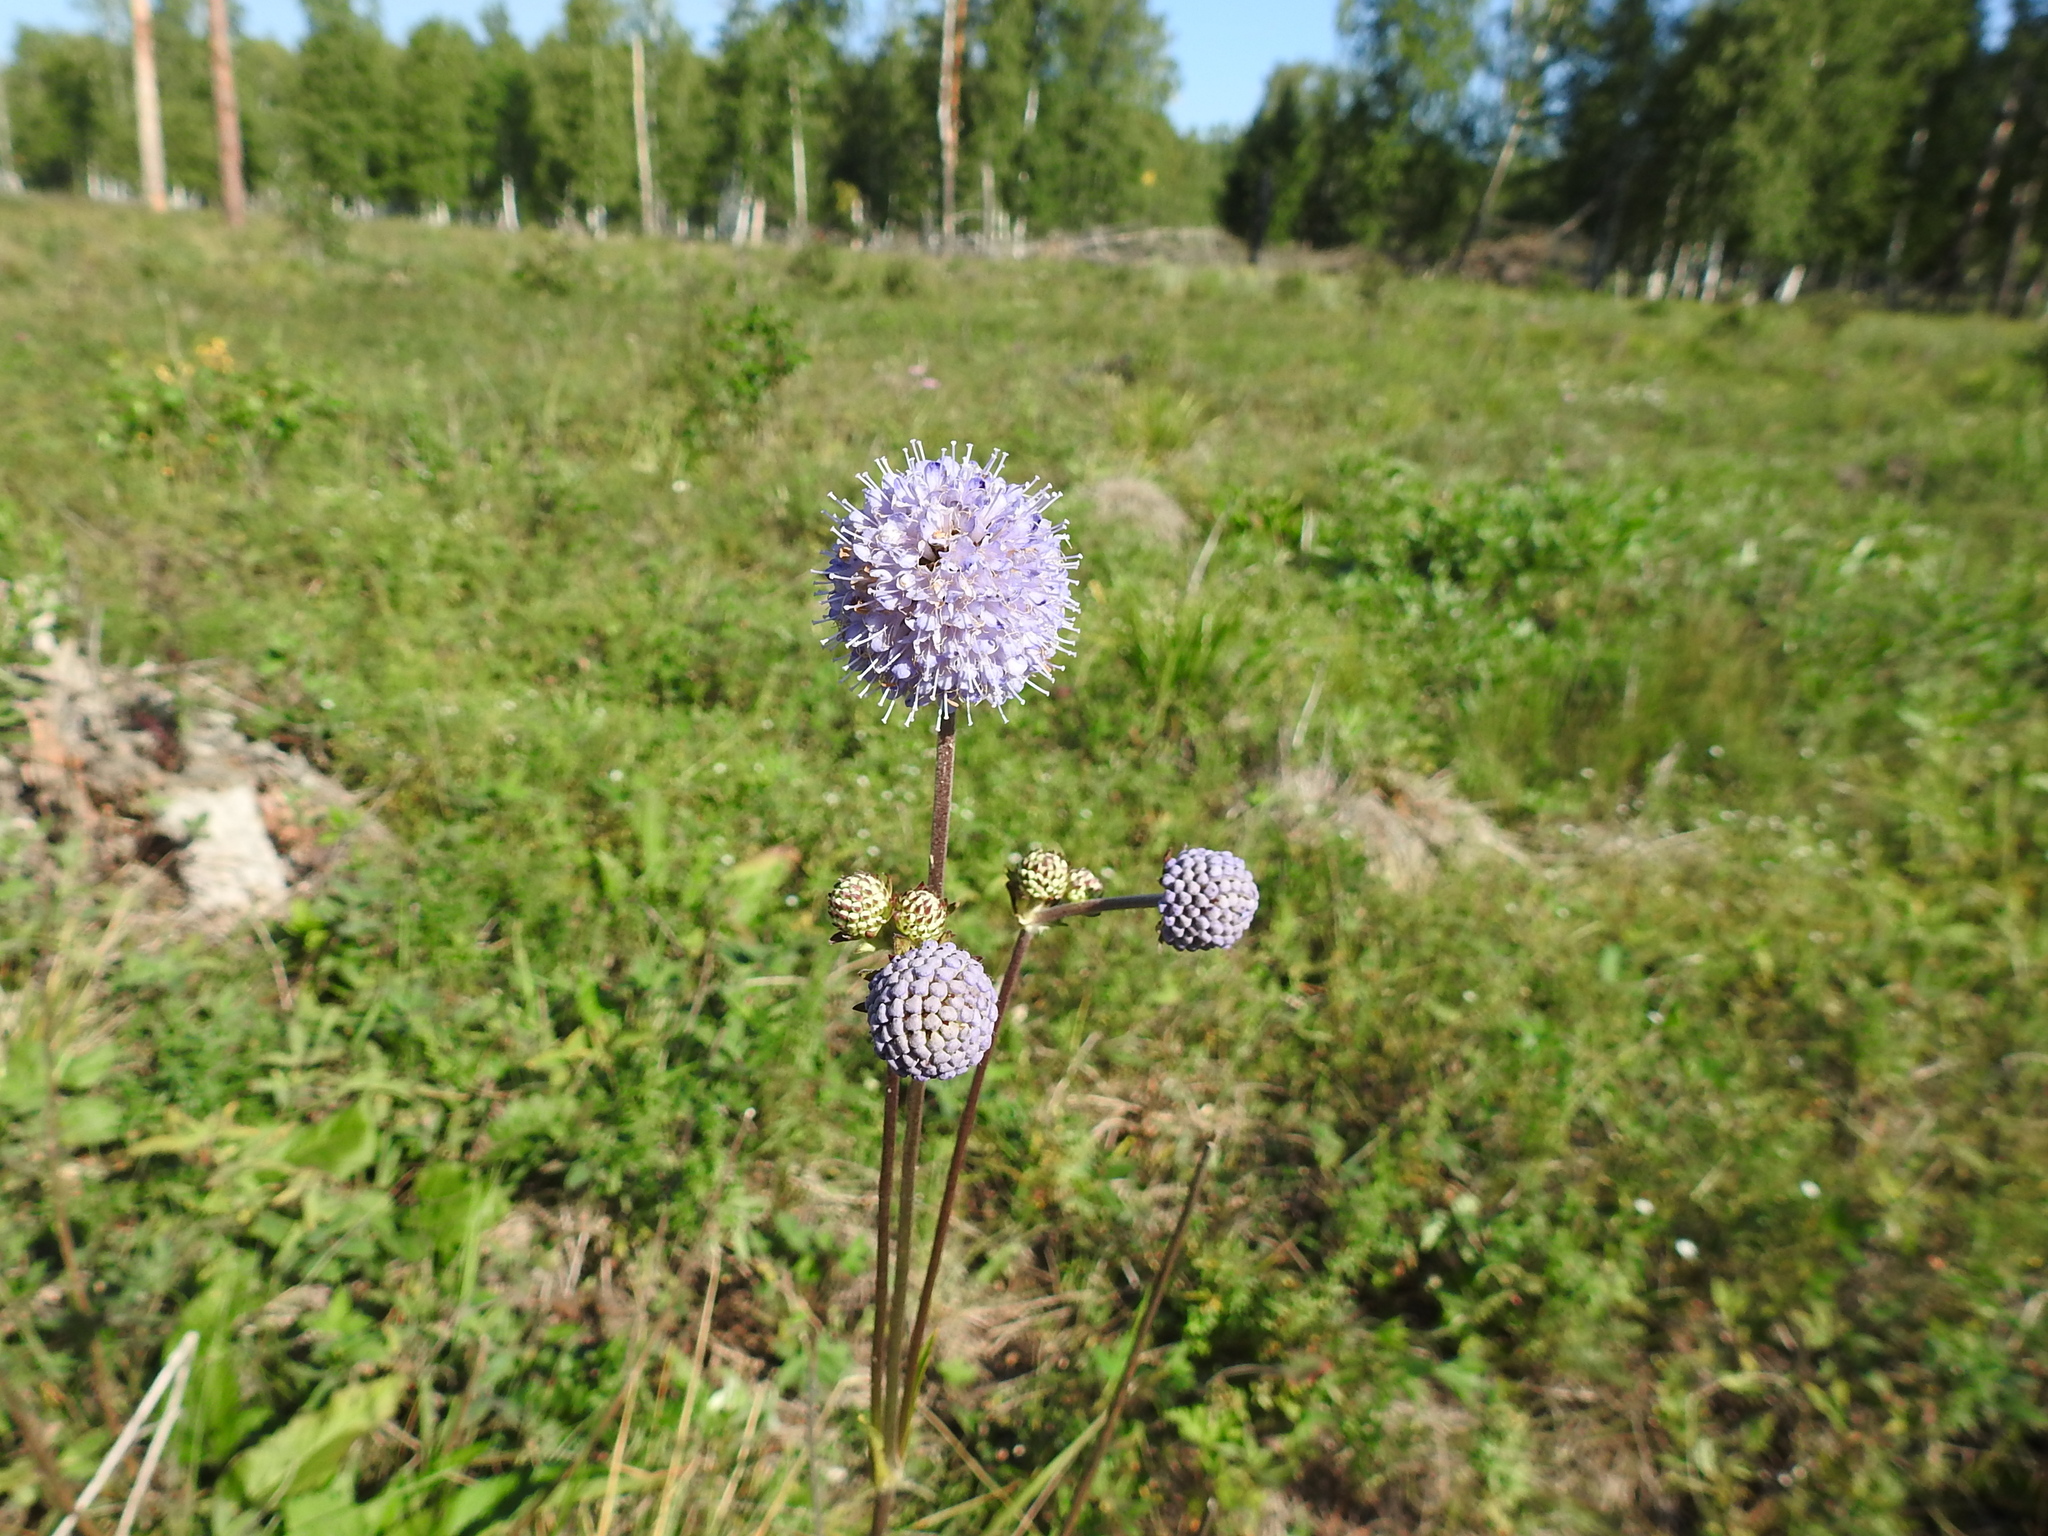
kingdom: Plantae
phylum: Tracheophyta
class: Magnoliopsida
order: Dipsacales
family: Caprifoliaceae
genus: Succisa
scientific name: Succisa pratensis
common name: Devil's-bit
